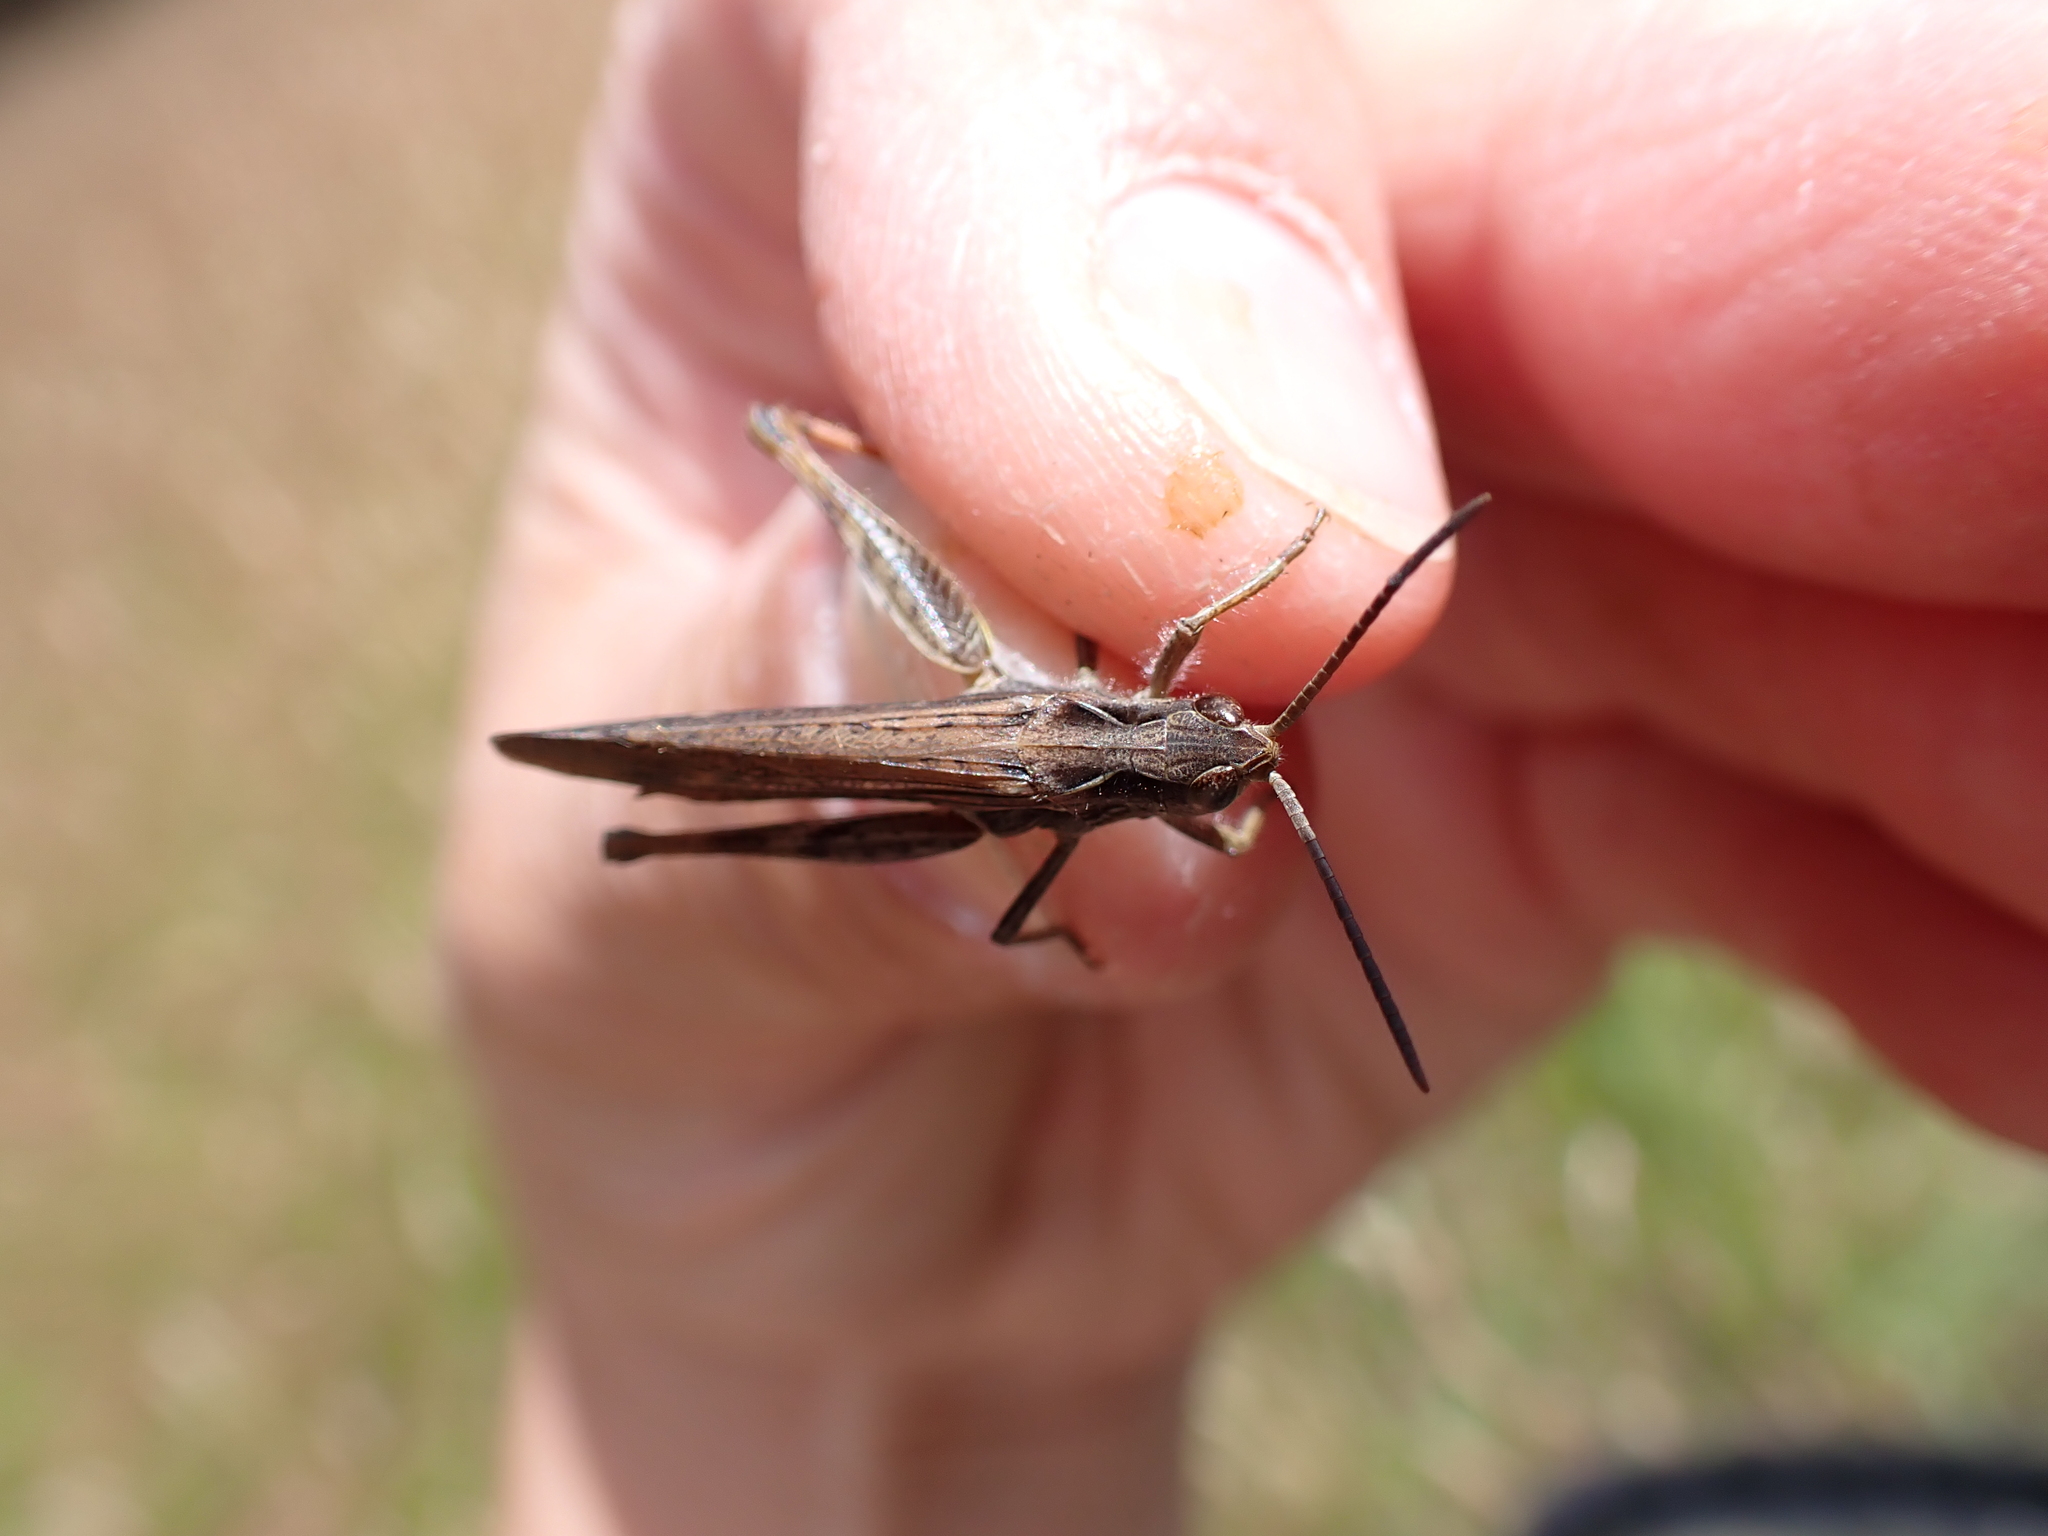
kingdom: Animalia
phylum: Arthropoda
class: Insecta
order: Orthoptera
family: Acrididae
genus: Chorthippus
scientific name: Chorthippus brunneus
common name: Field grasshopper
